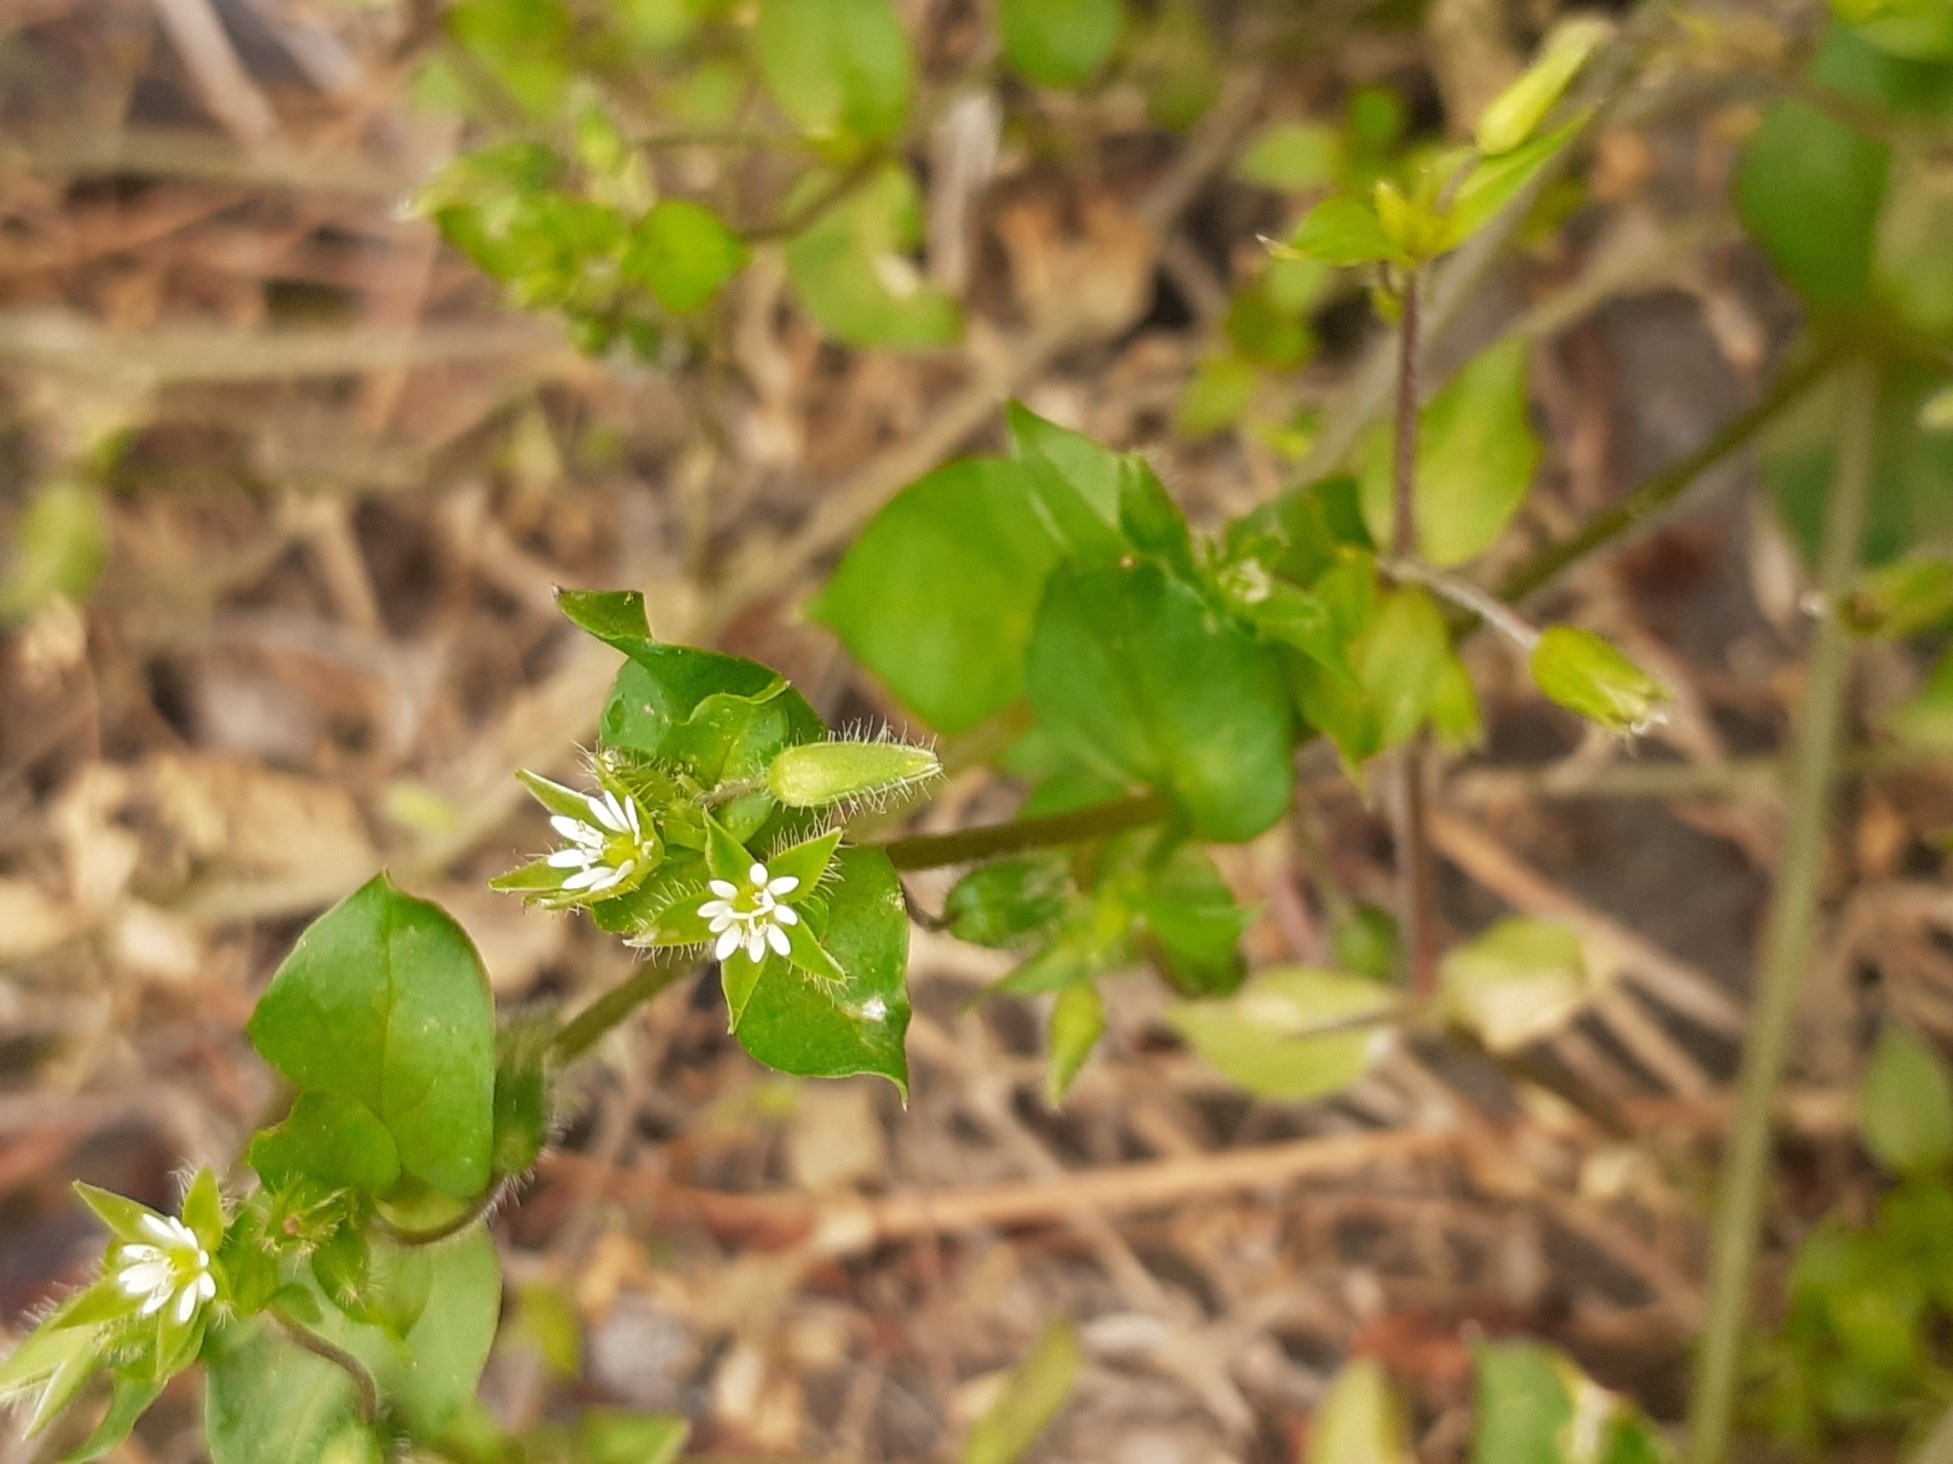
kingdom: Plantae
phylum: Tracheophyta
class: Magnoliopsida
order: Caryophyllales
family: Caryophyllaceae
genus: Stellaria
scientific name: Stellaria media
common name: Common chickweed
